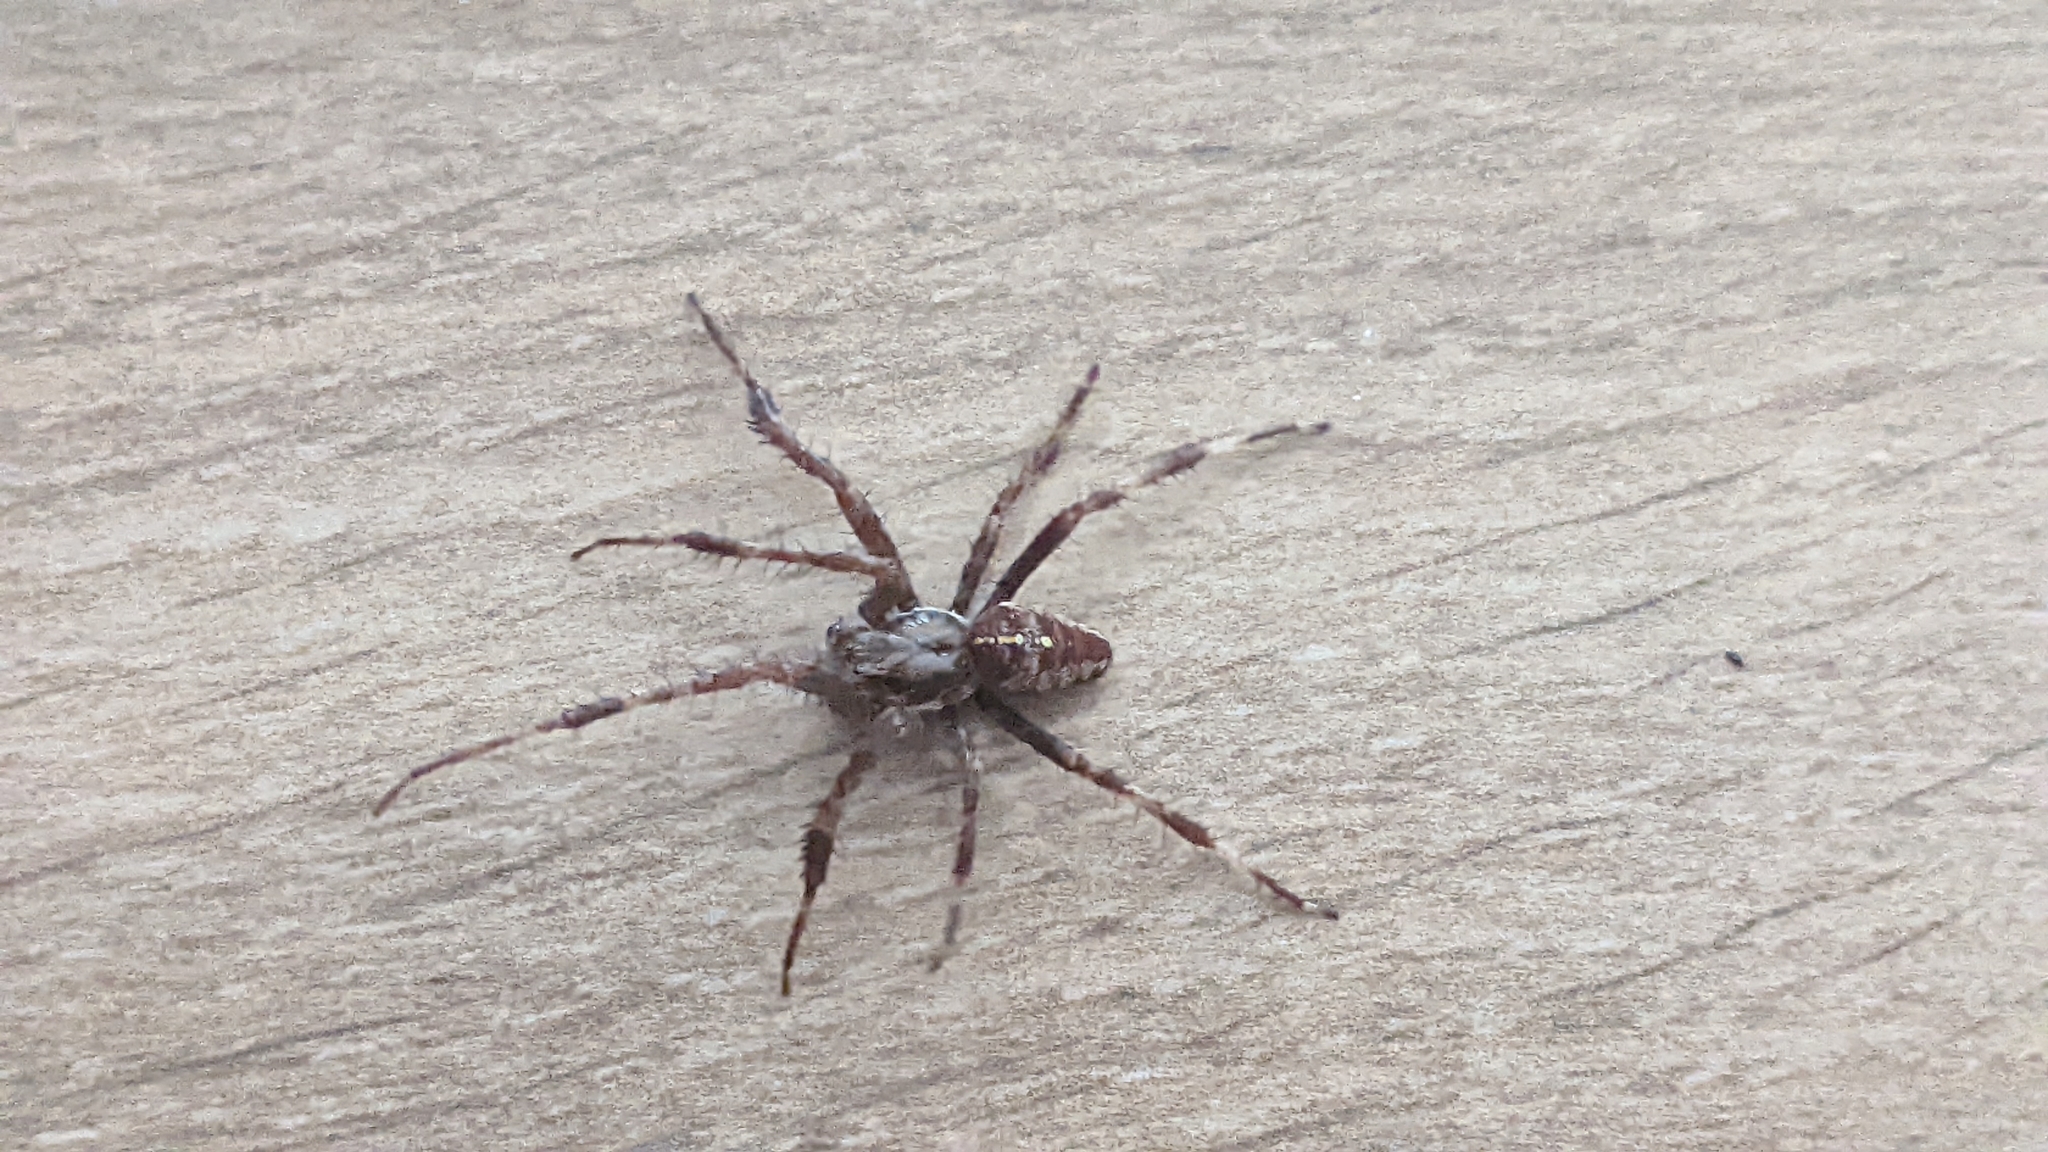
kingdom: Animalia
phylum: Arthropoda
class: Arachnida
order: Araneae
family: Araneidae
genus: Araneus
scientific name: Araneus diadematus
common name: Cross orbweaver
